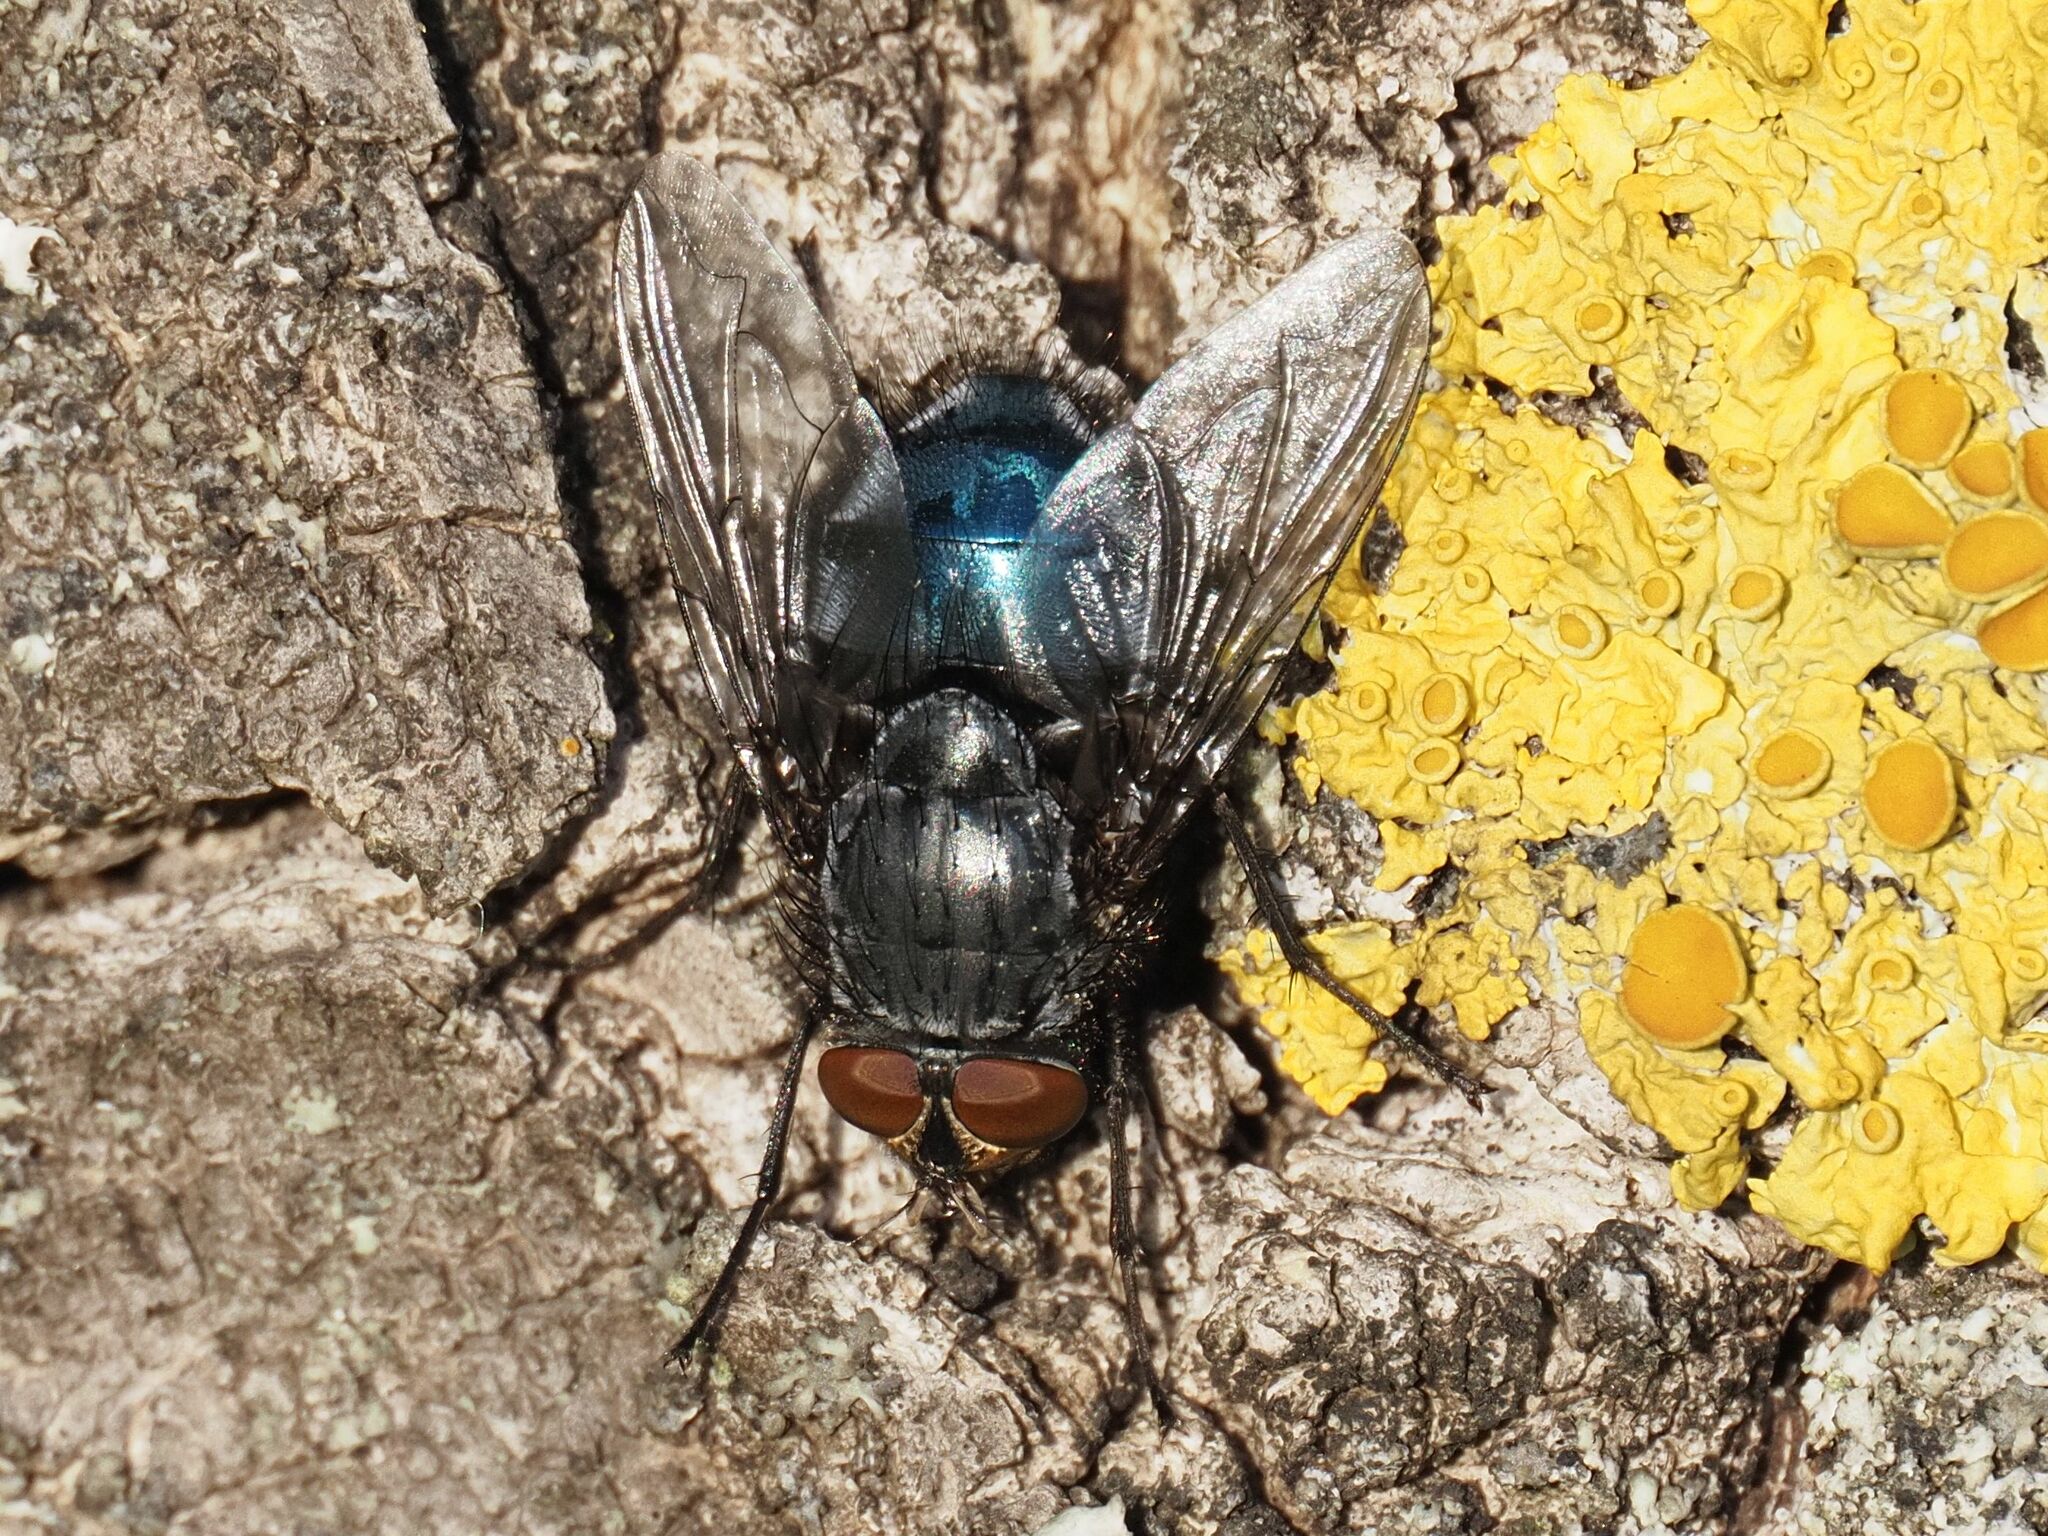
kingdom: Animalia
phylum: Arthropoda
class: Insecta
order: Diptera
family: Calliphoridae
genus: Calliphora
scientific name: Calliphora vicina
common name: Common blow flie
